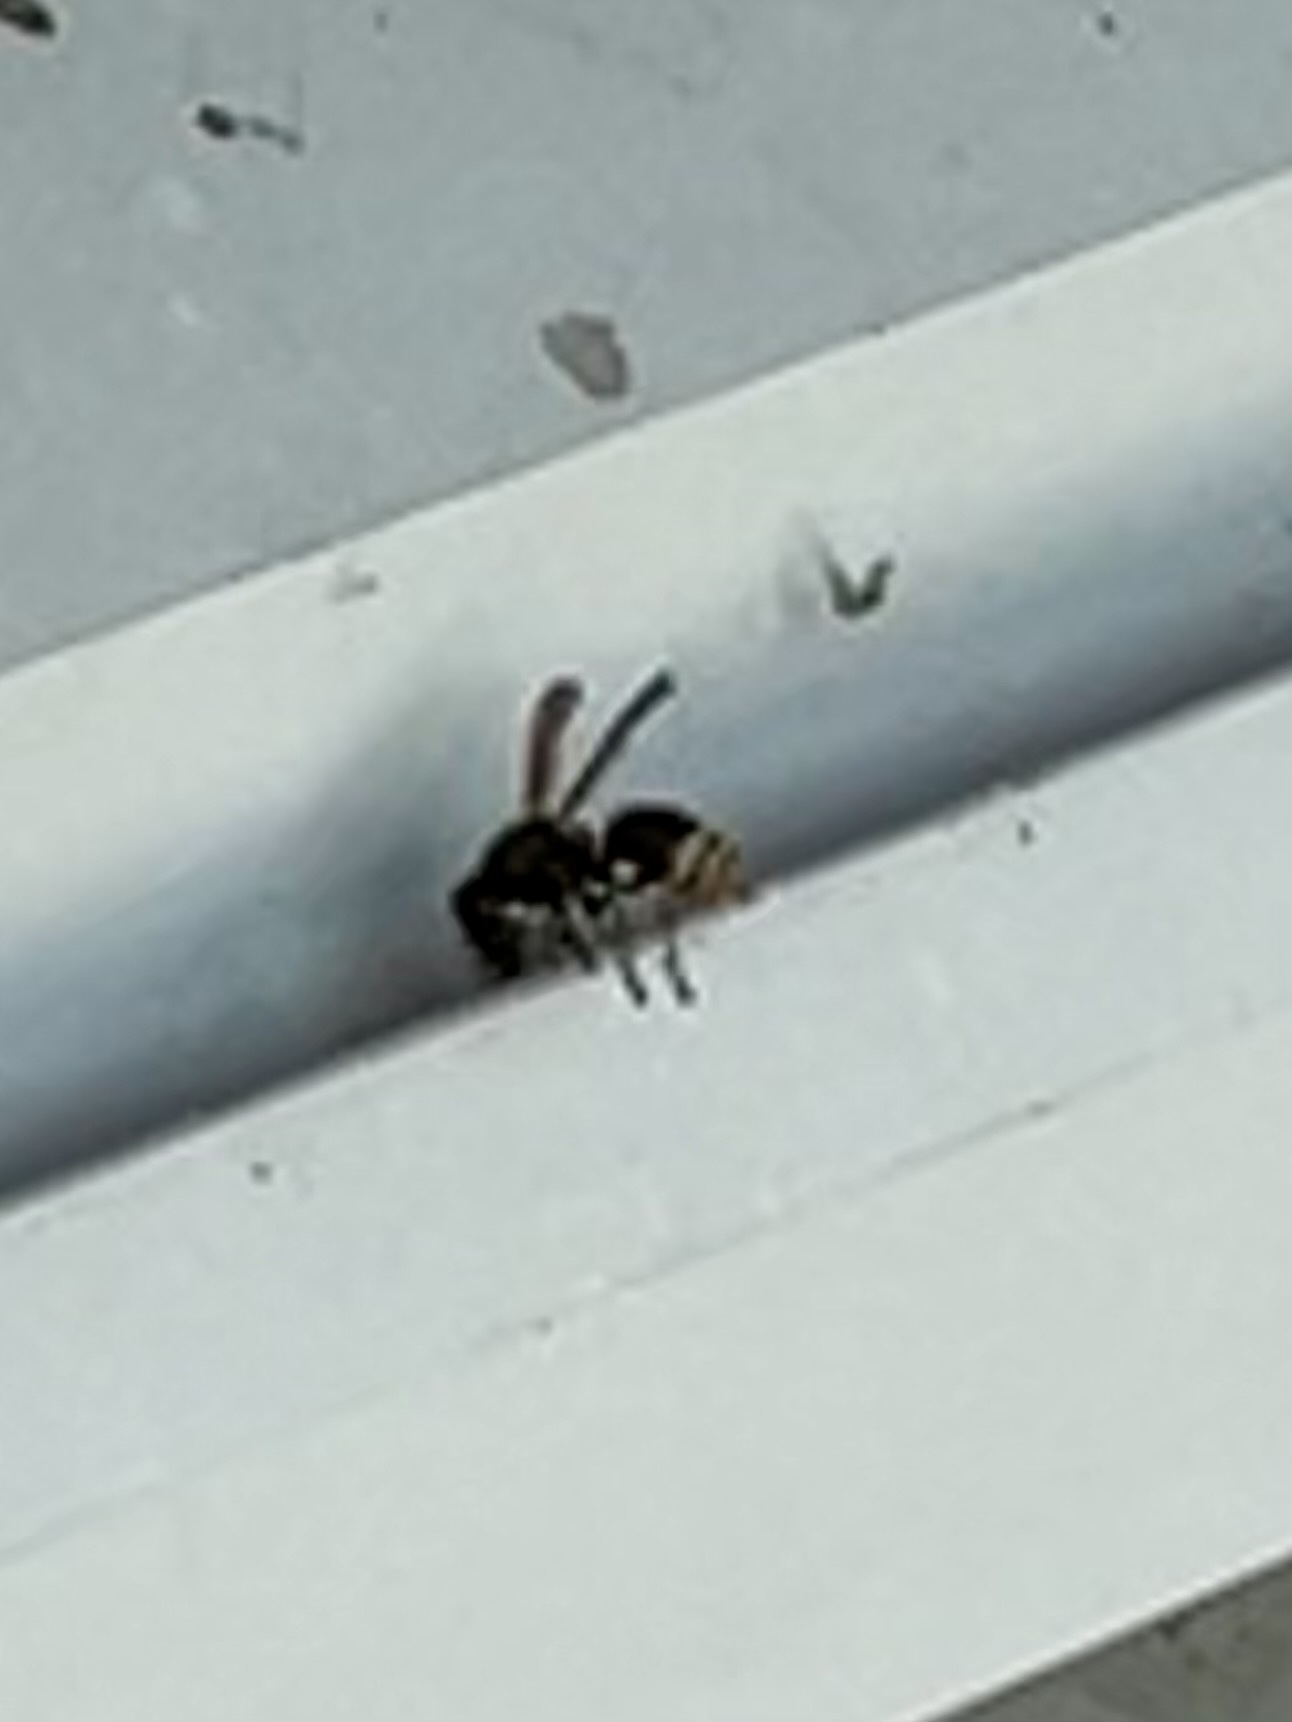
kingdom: Animalia
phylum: Arthropoda
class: Insecta
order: Hymenoptera
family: Eumenidae
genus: Pachodynerus
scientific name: Pachodynerus nasidens
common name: Key hole wasp
